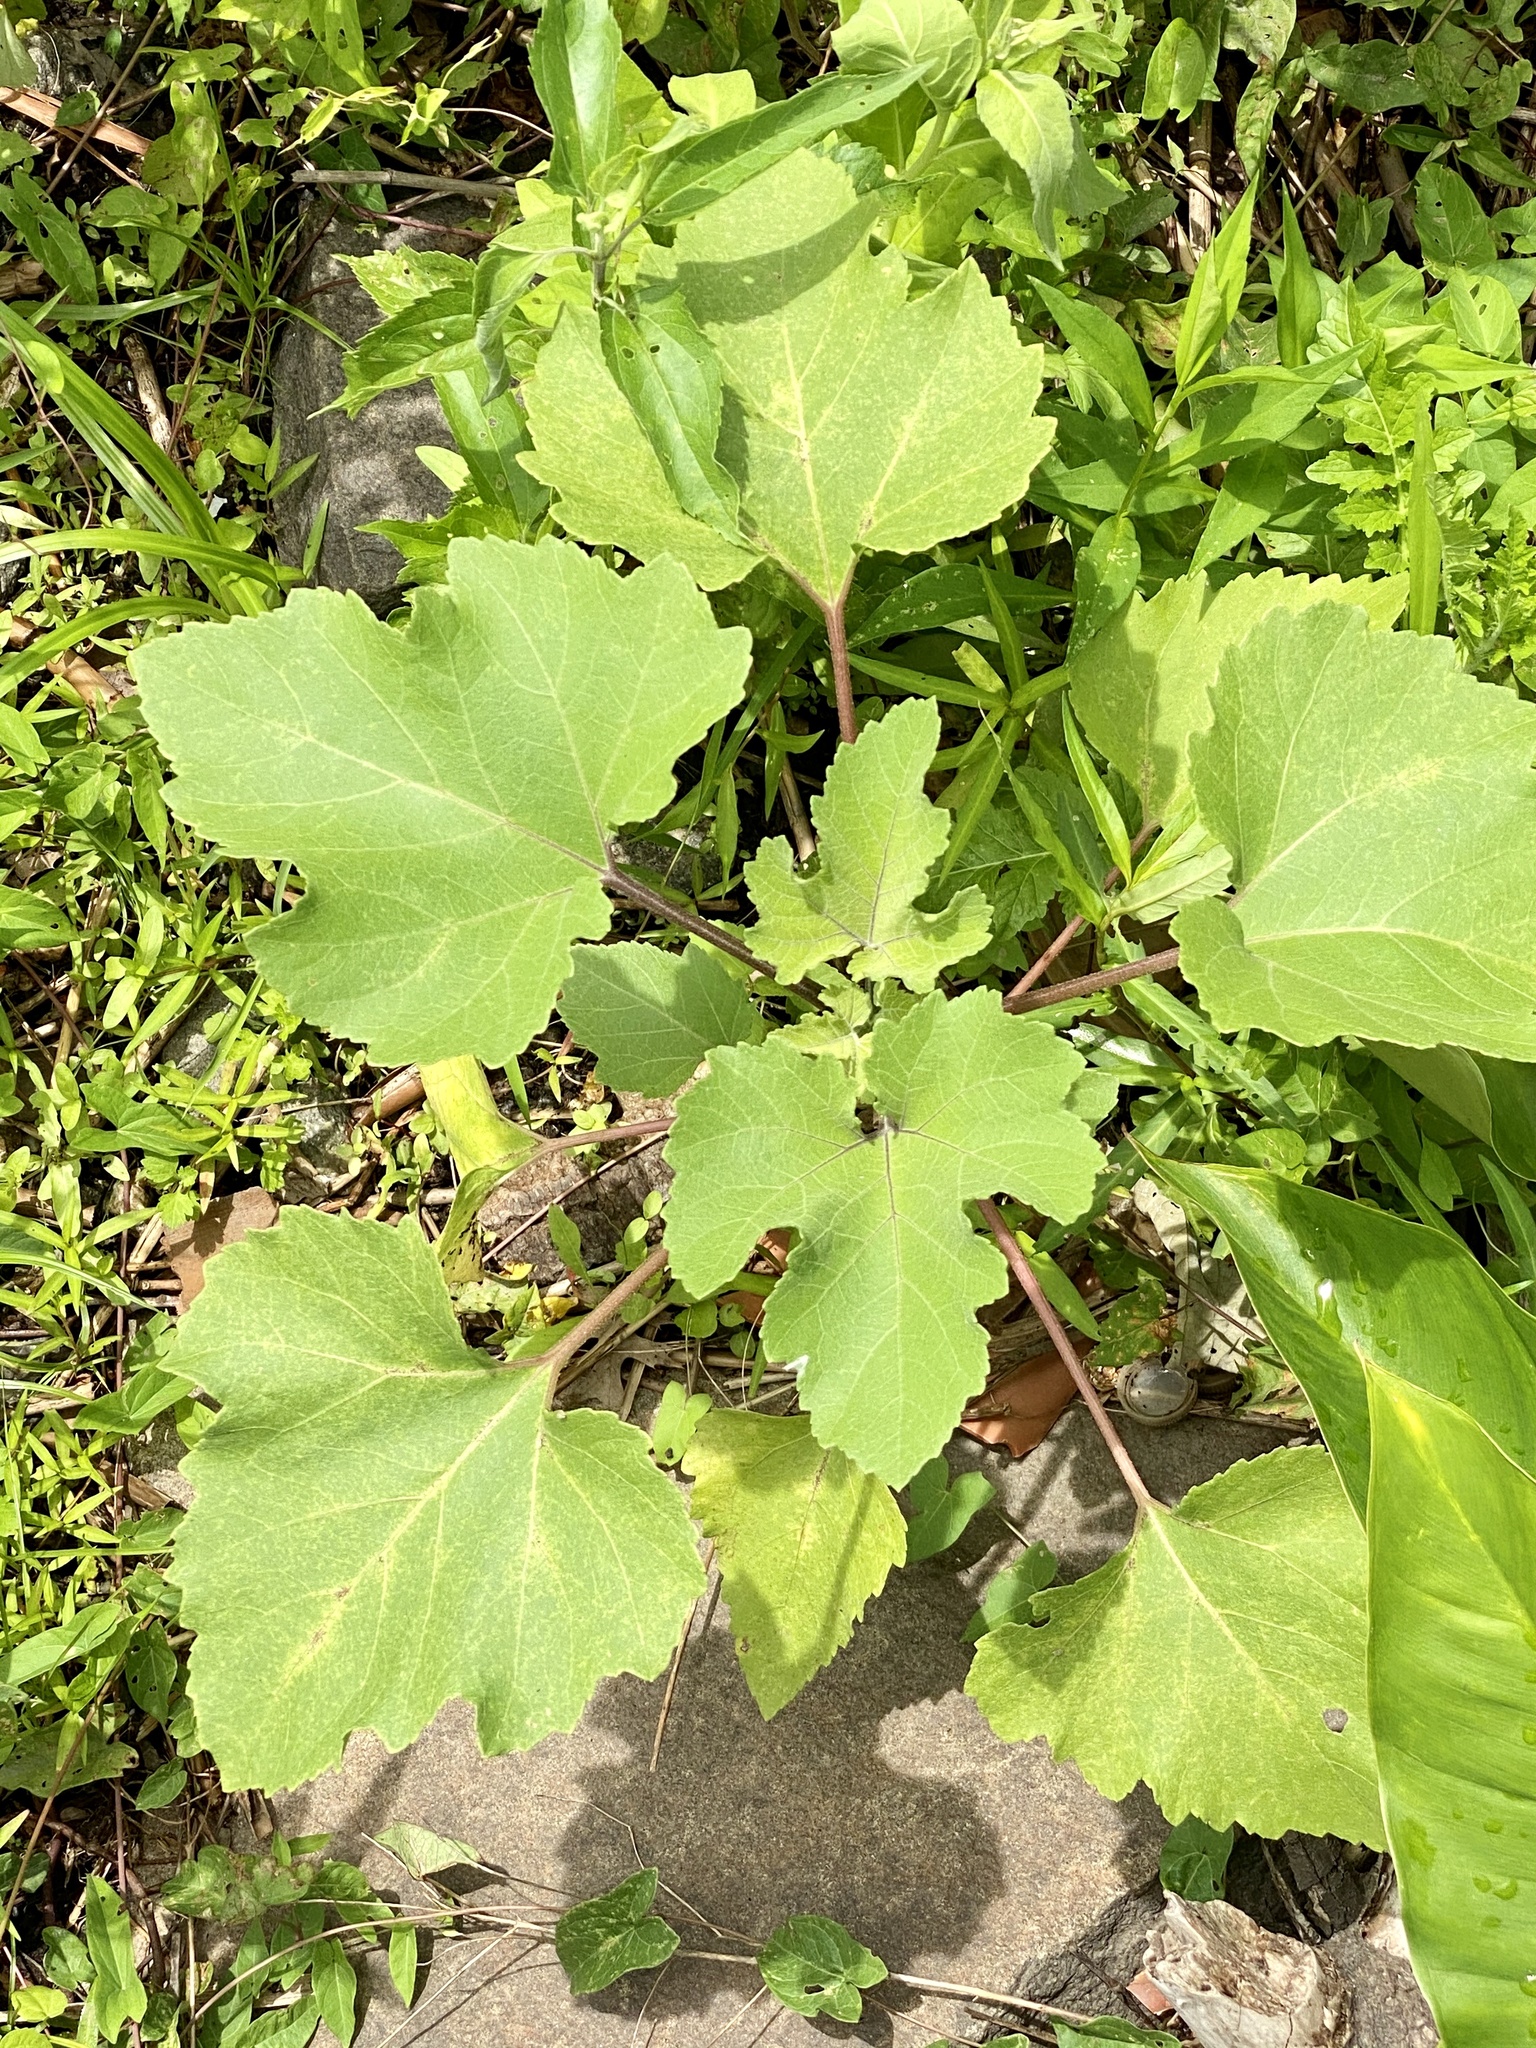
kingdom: Plantae
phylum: Tracheophyta
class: Magnoliopsida
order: Asterales
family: Asteraceae
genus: Xanthium
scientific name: Xanthium strumarium
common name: Rough cocklebur
